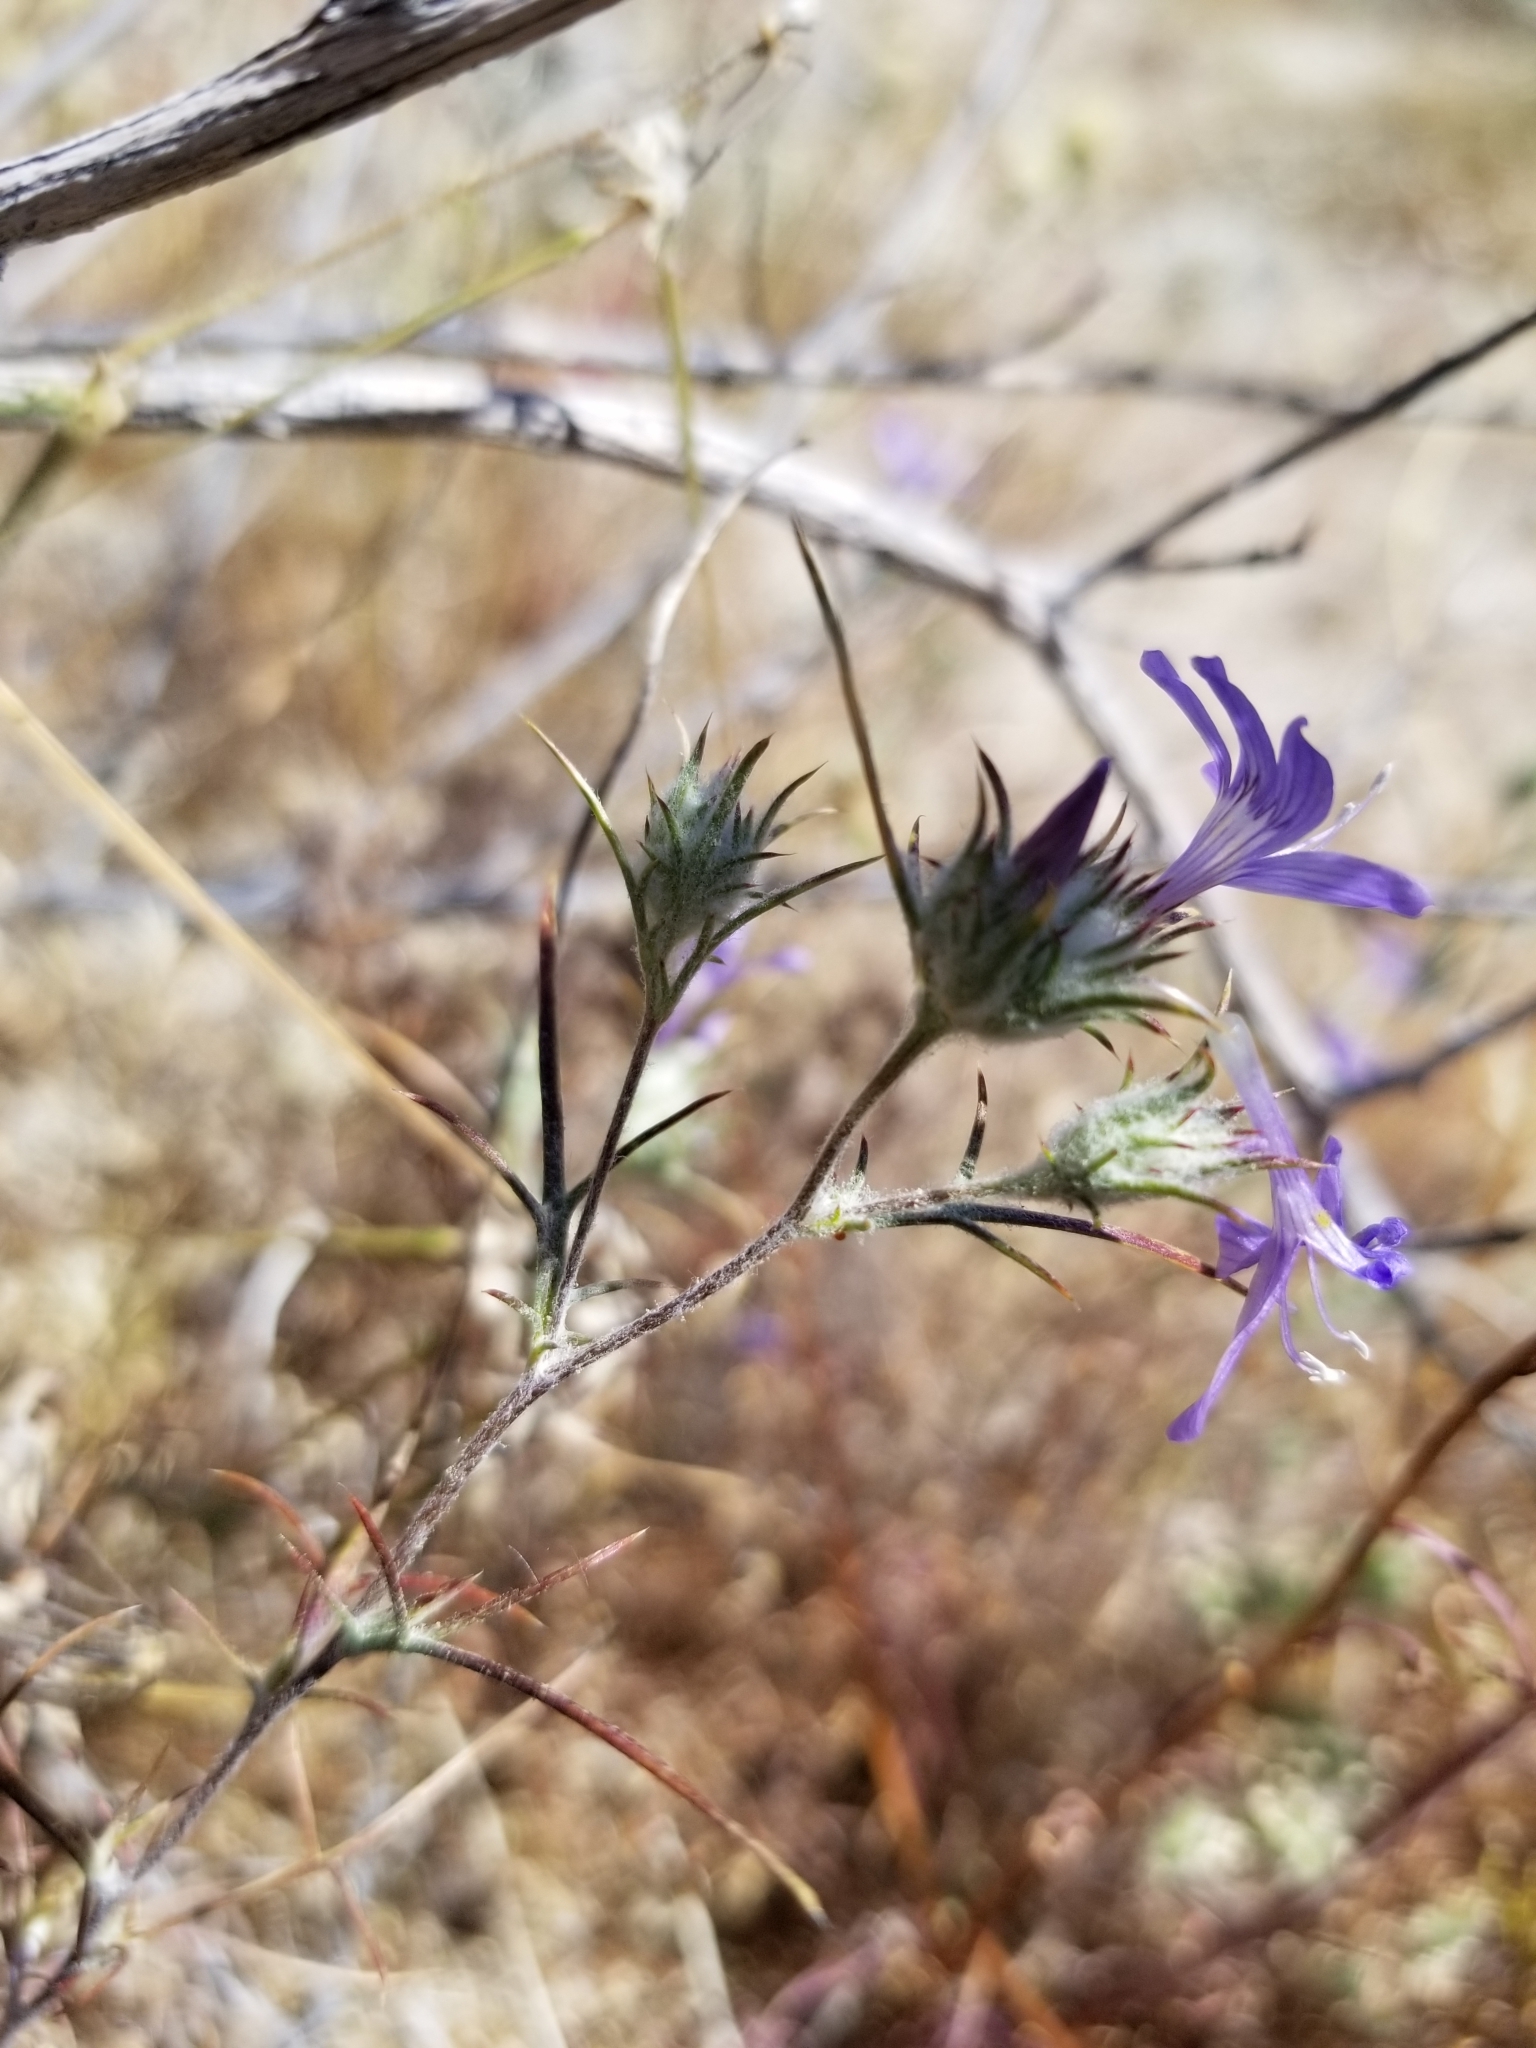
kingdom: Plantae
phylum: Tracheophyta
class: Magnoliopsida
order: Ericales
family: Polemoniaceae
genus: Eriastrum
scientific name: Eriastrum eremicum
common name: Desert eriastrum
